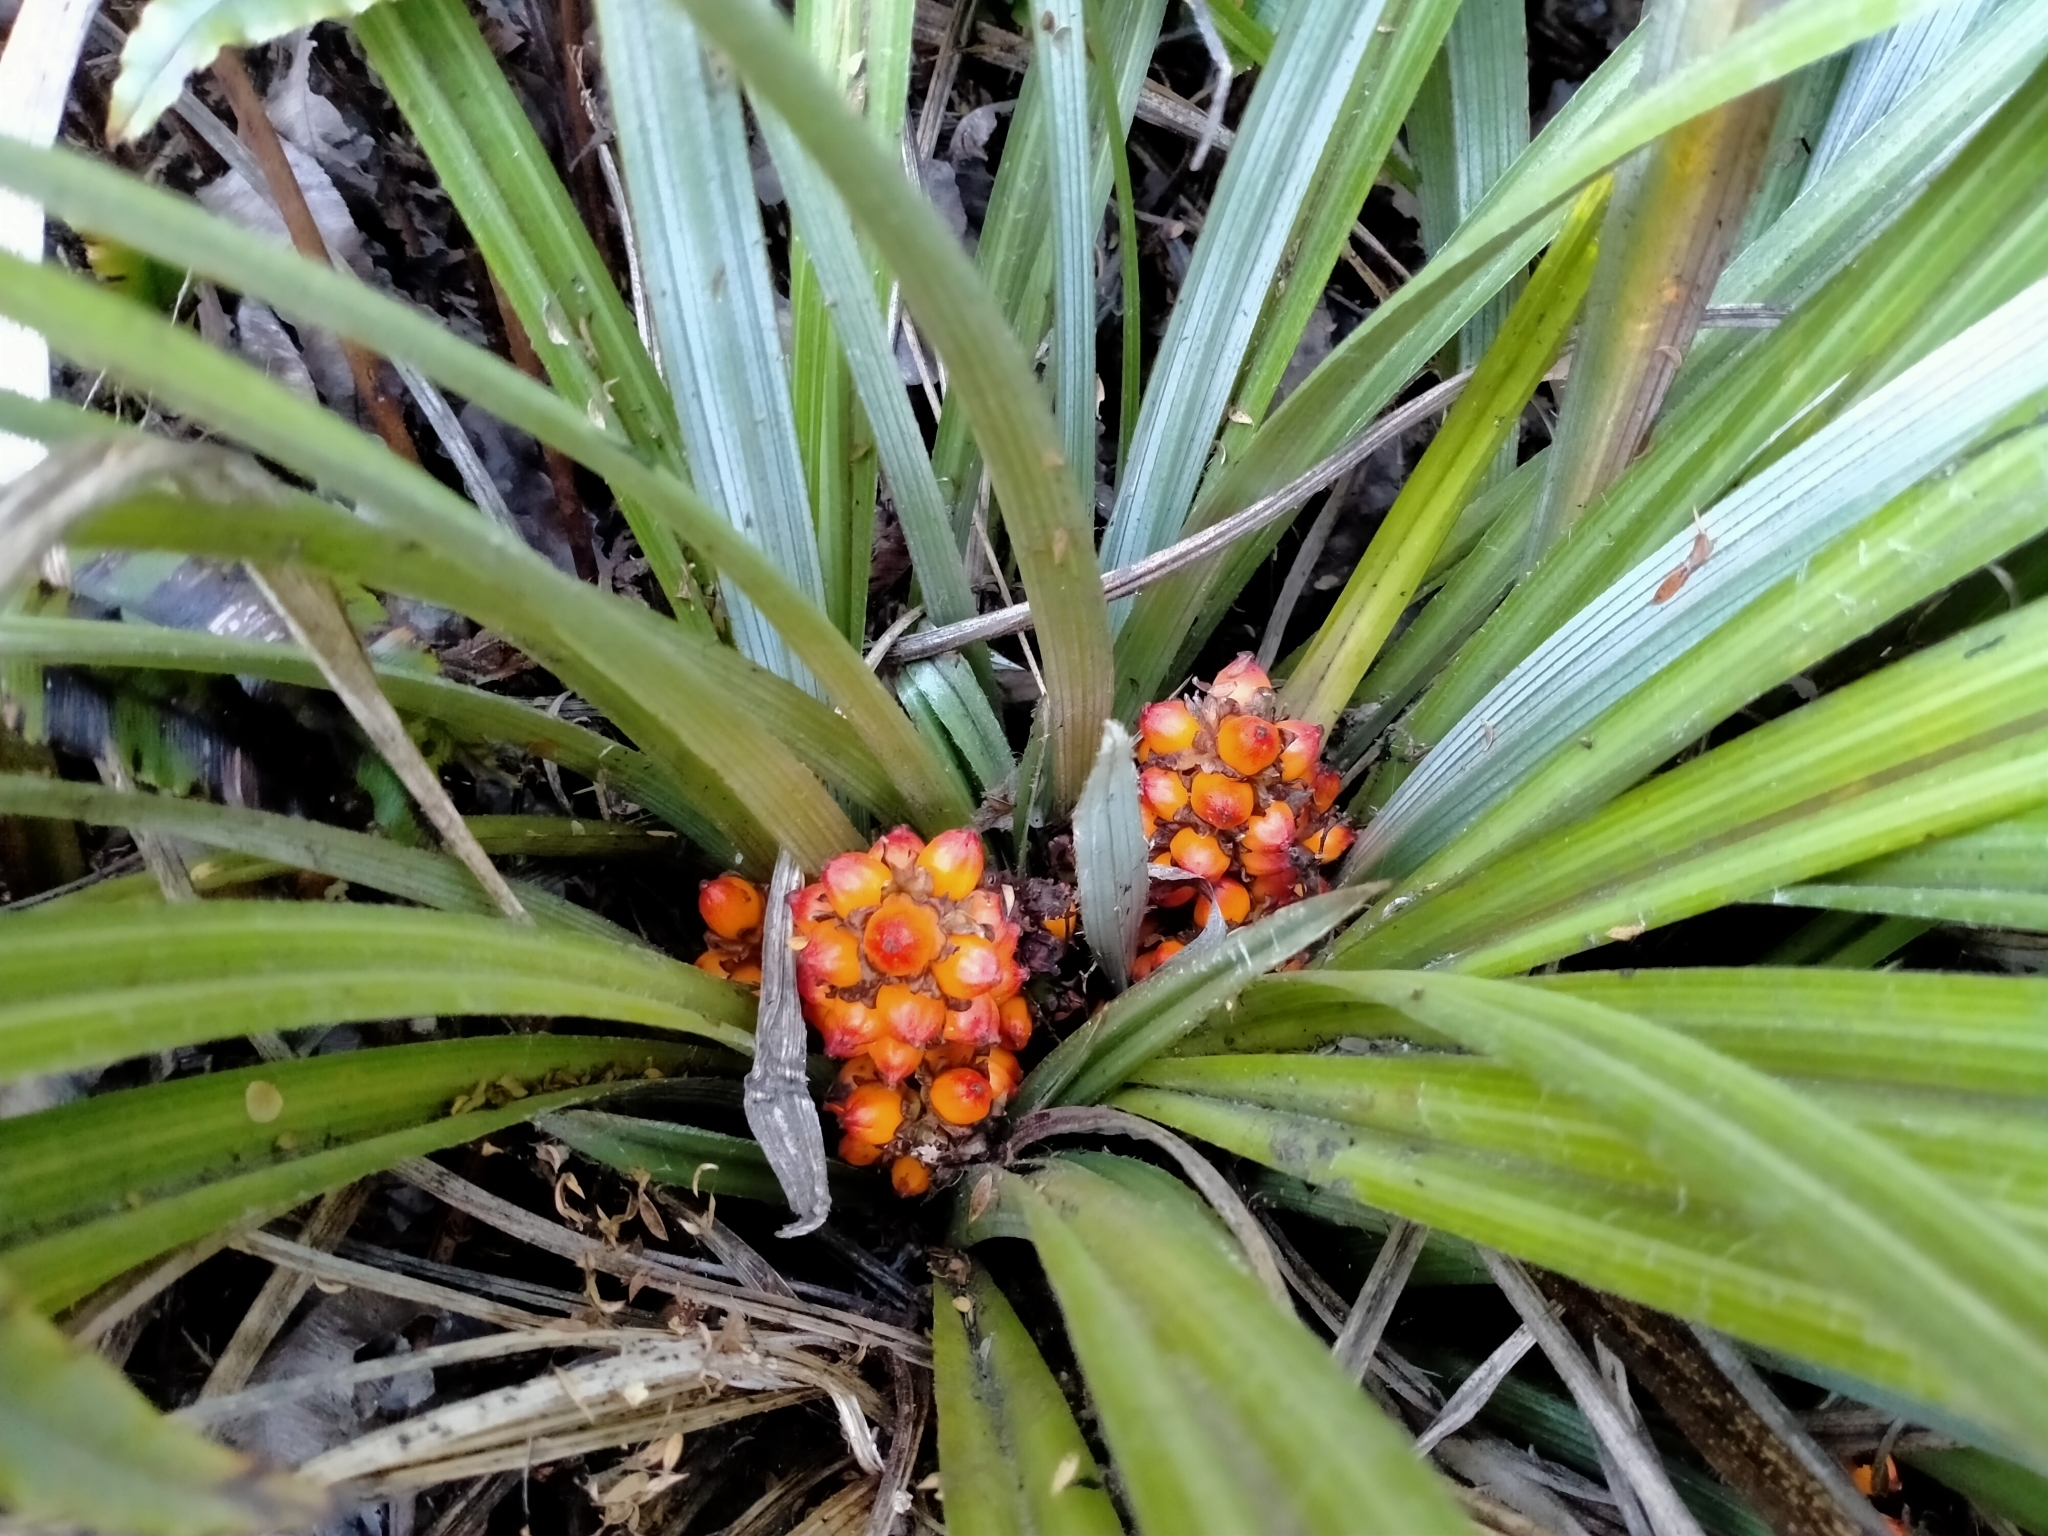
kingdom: Plantae
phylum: Tracheophyta
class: Liliopsida
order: Asparagales
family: Asteliaceae
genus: Astelia
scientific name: Astelia nervosa
